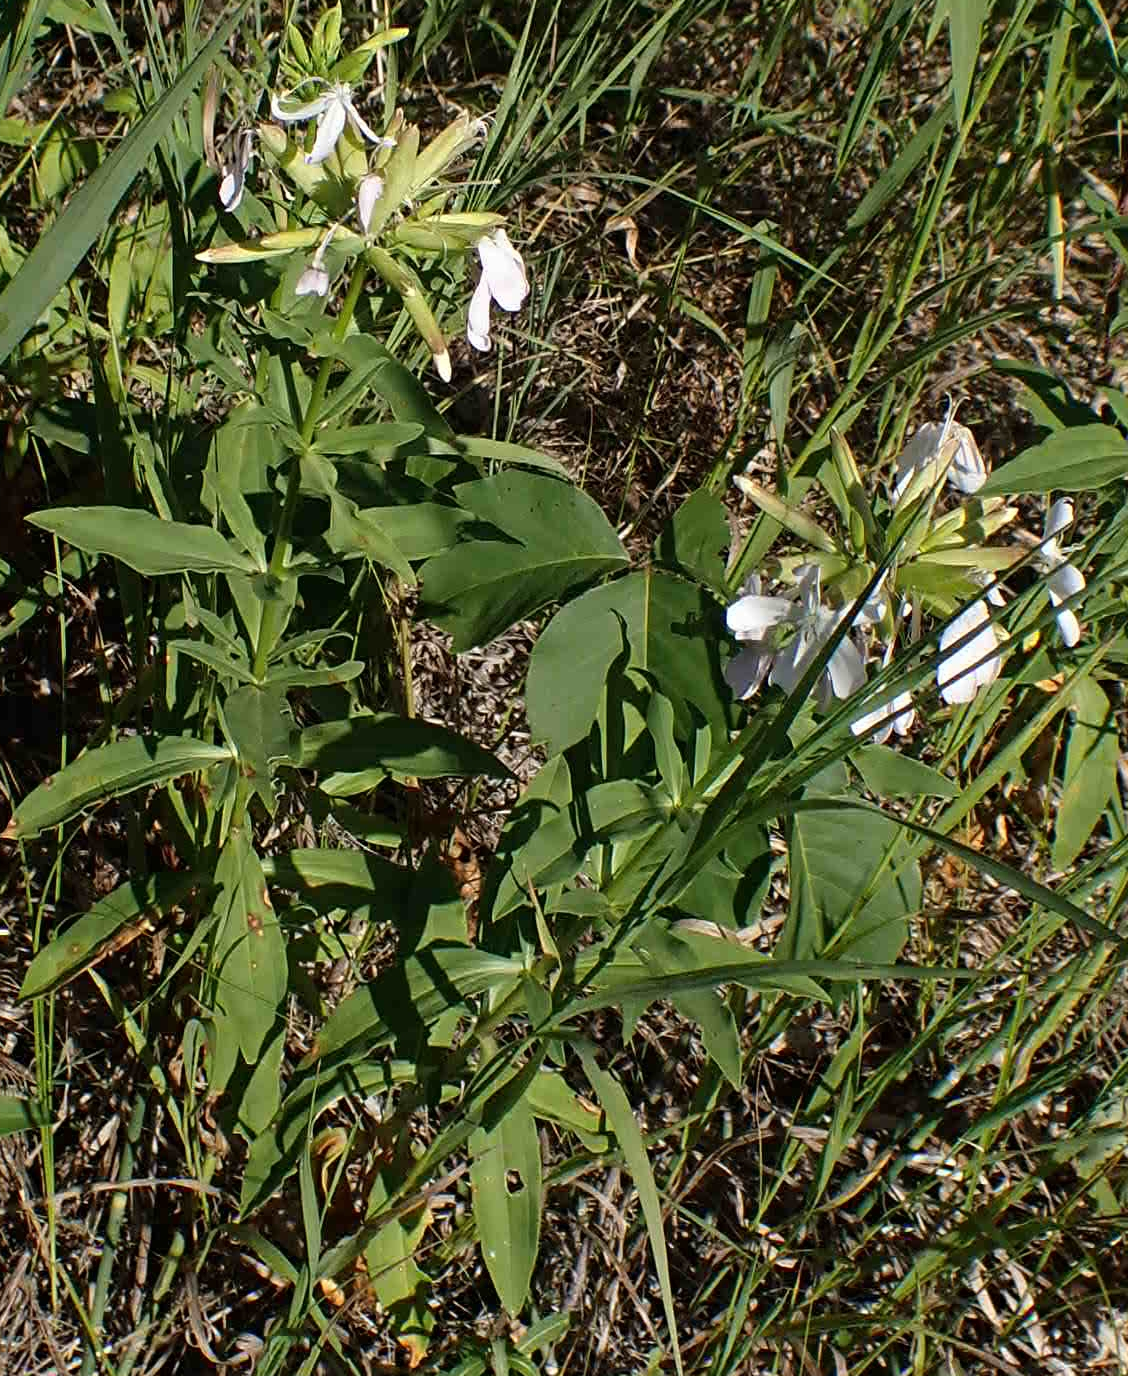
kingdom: Plantae
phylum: Tracheophyta
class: Magnoliopsida
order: Caryophyllales
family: Caryophyllaceae
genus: Saponaria
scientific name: Saponaria officinalis
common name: Soapwort
